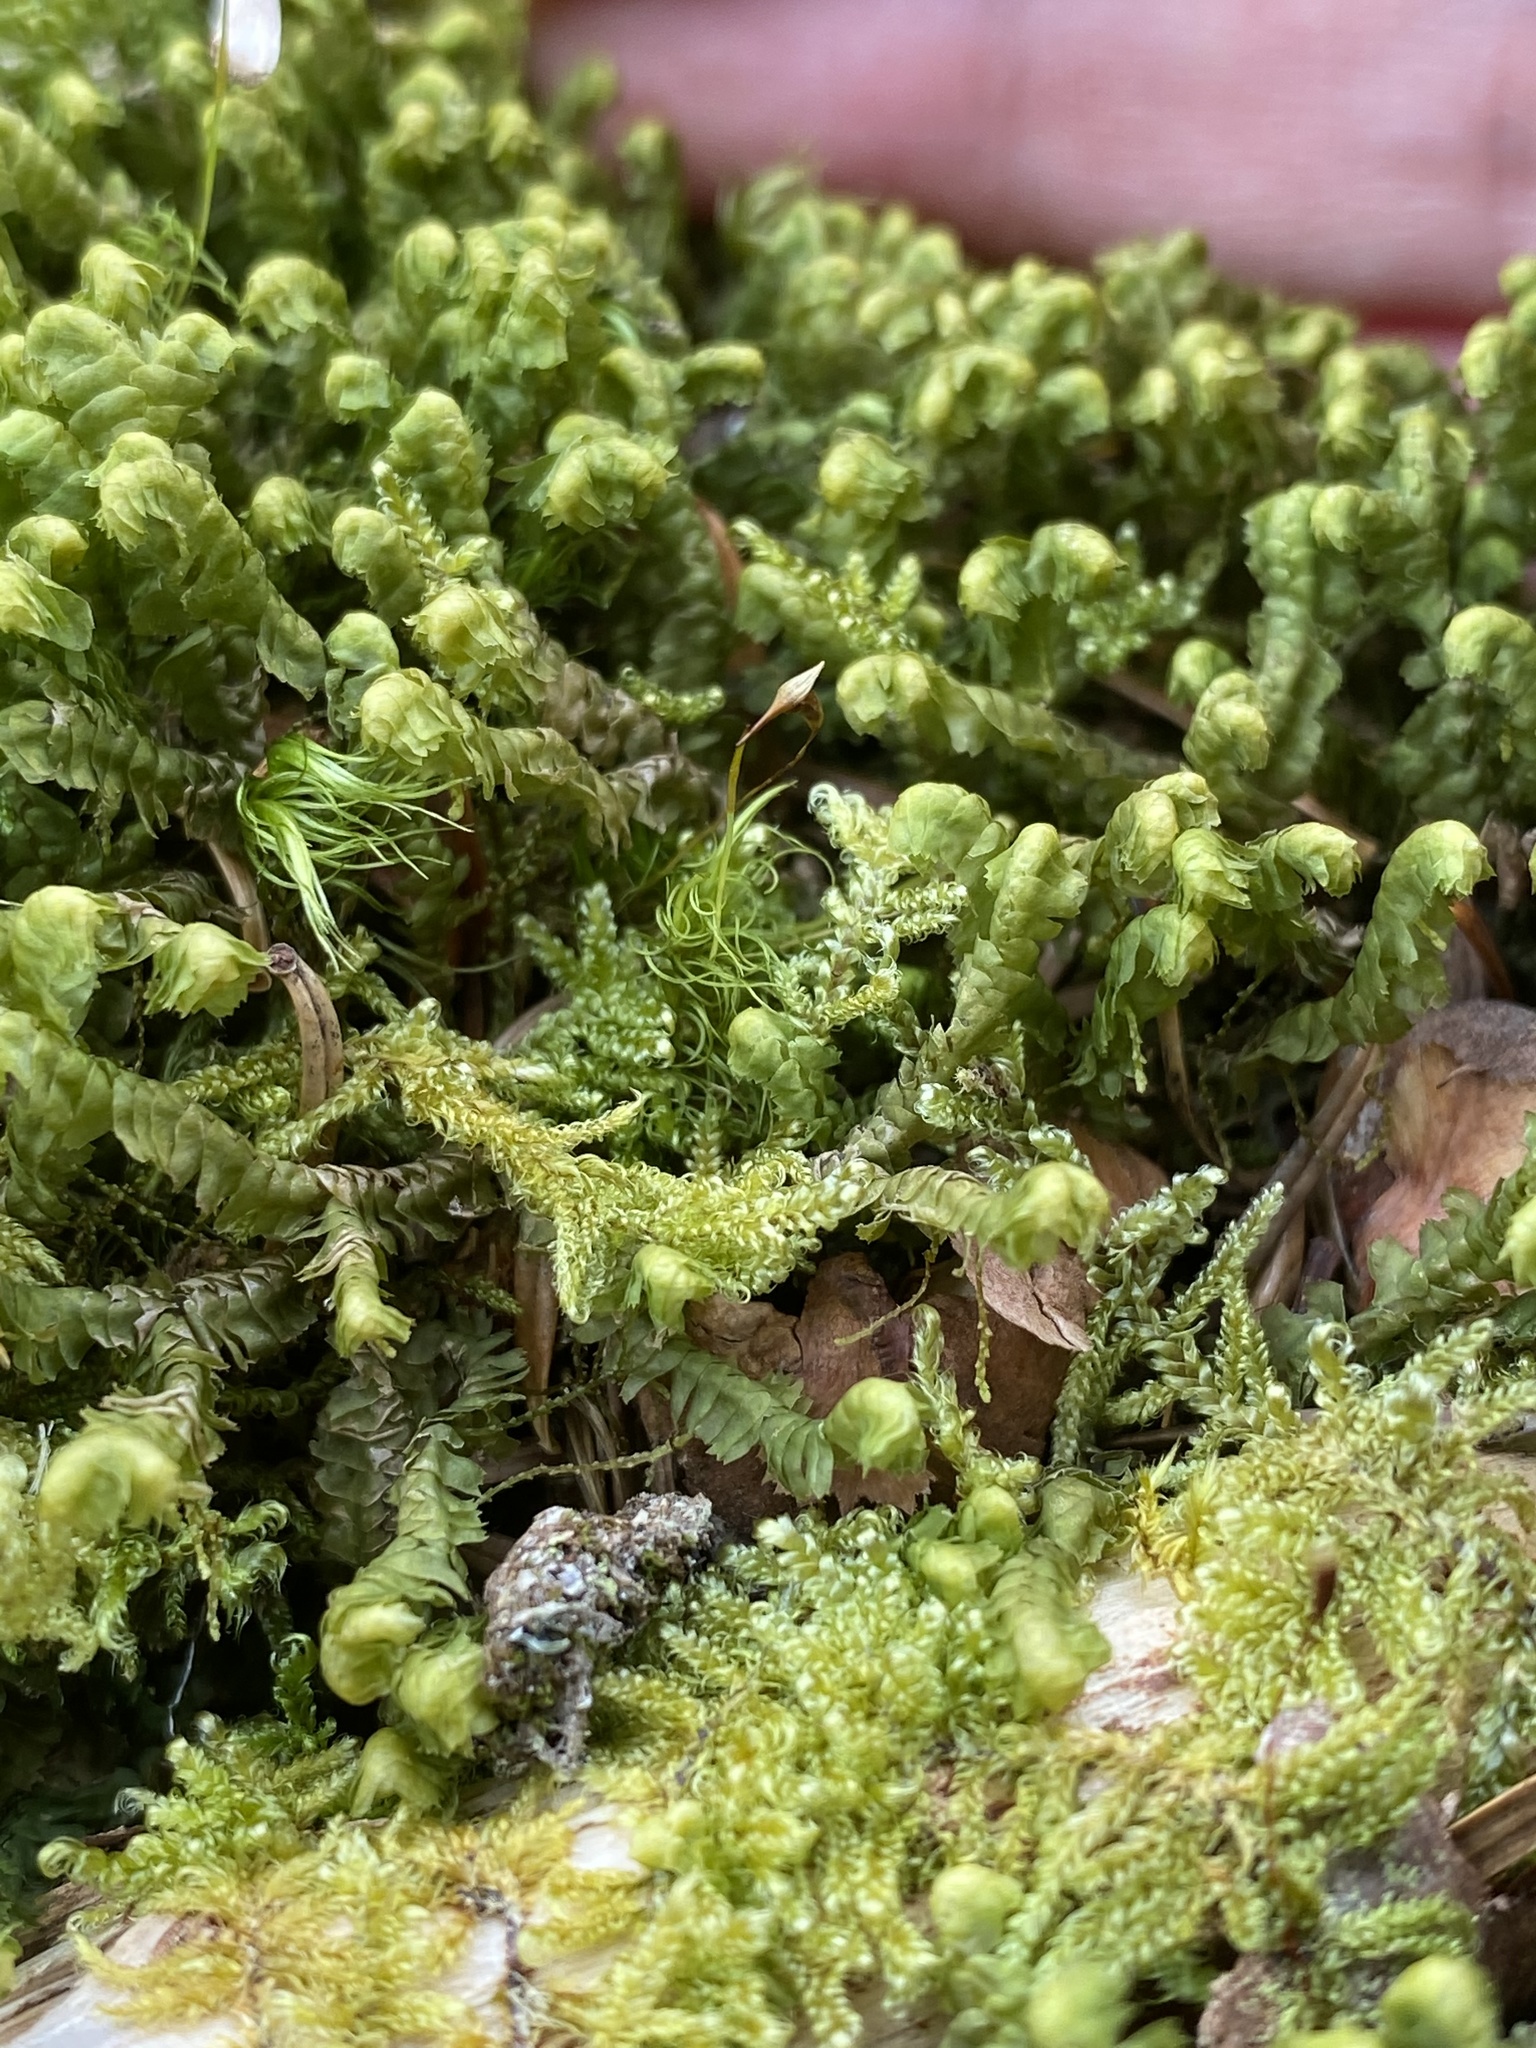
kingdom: Plantae
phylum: Marchantiophyta
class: Jungermanniopsida
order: Jungermanniales
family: Lepidoziaceae
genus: Bazzania
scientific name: Bazzania trilobata
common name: Three-lobed whipwort
